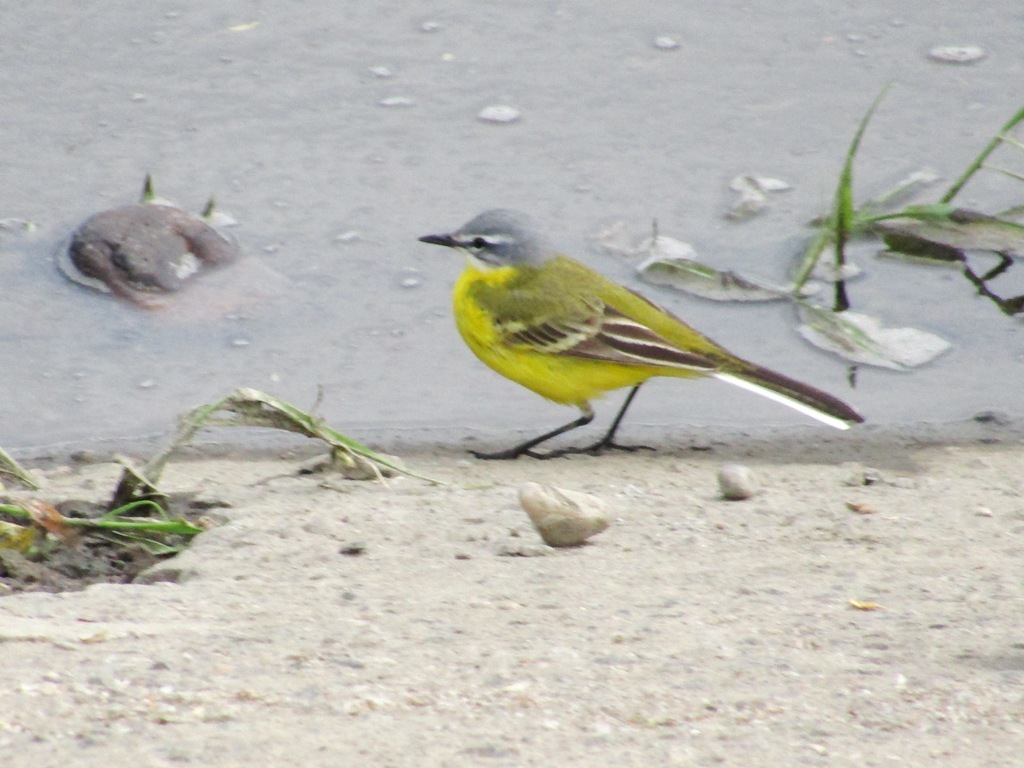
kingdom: Animalia
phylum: Chordata
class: Aves
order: Passeriformes
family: Motacillidae
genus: Motacilla
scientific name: Motacilla flava
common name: Western yellow wagtail
